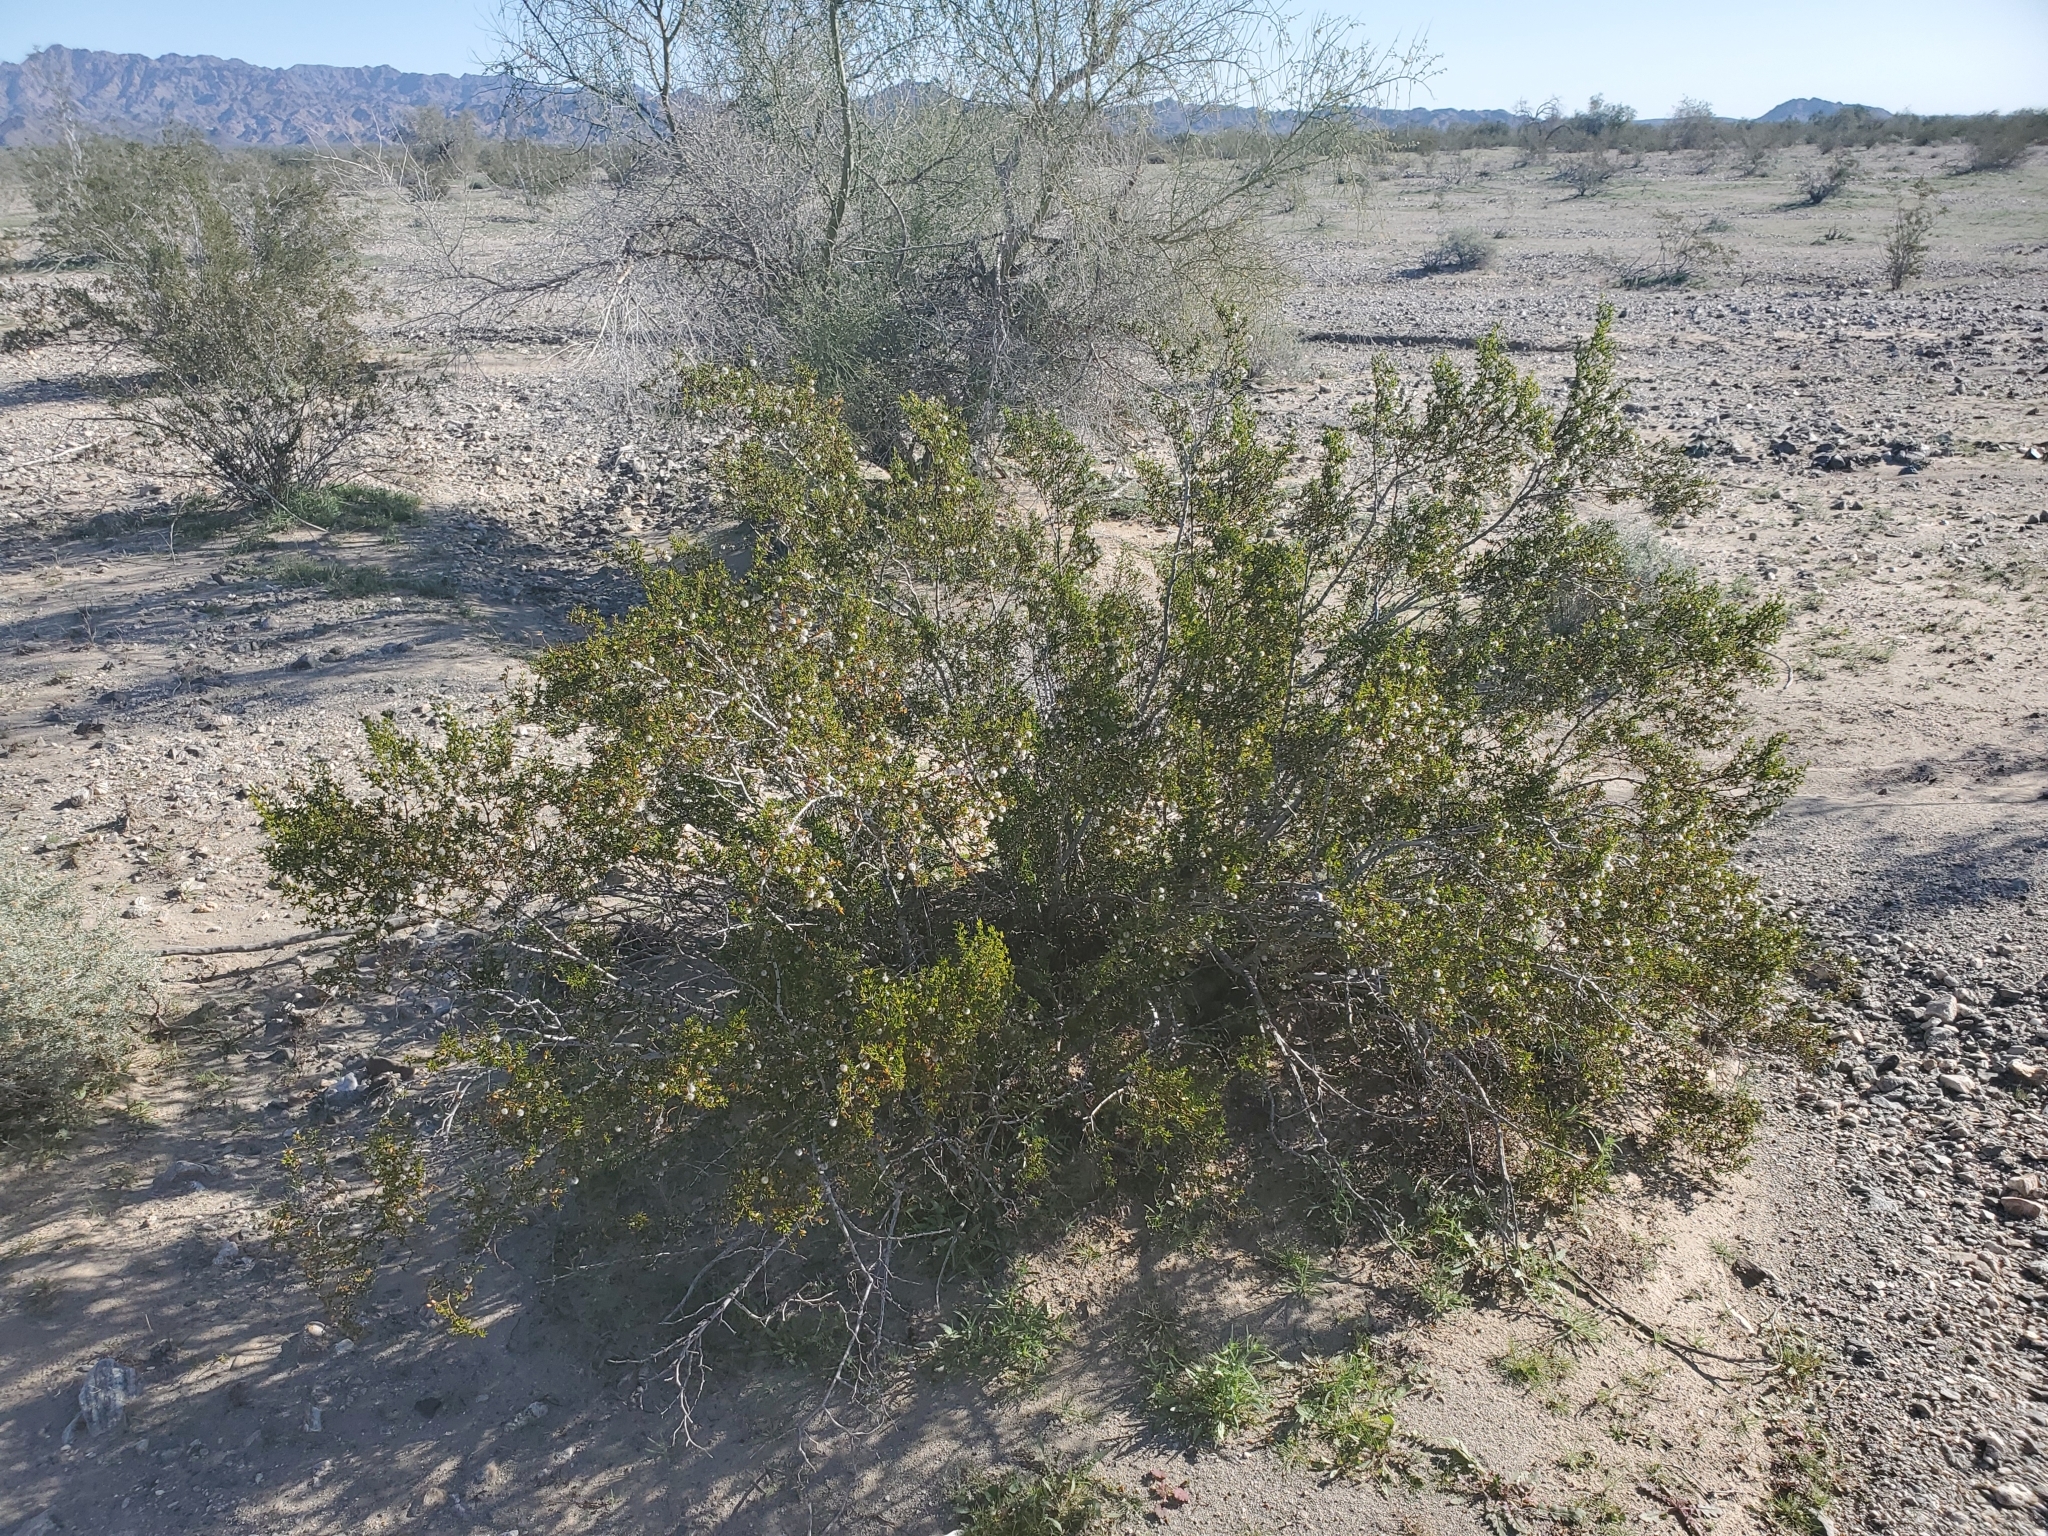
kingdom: Plantae
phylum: Tracheophyta
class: Magnoliopsida
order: Zygophyllales
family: Zygophyllaceae
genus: Larrea
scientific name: Larrea tridentata
